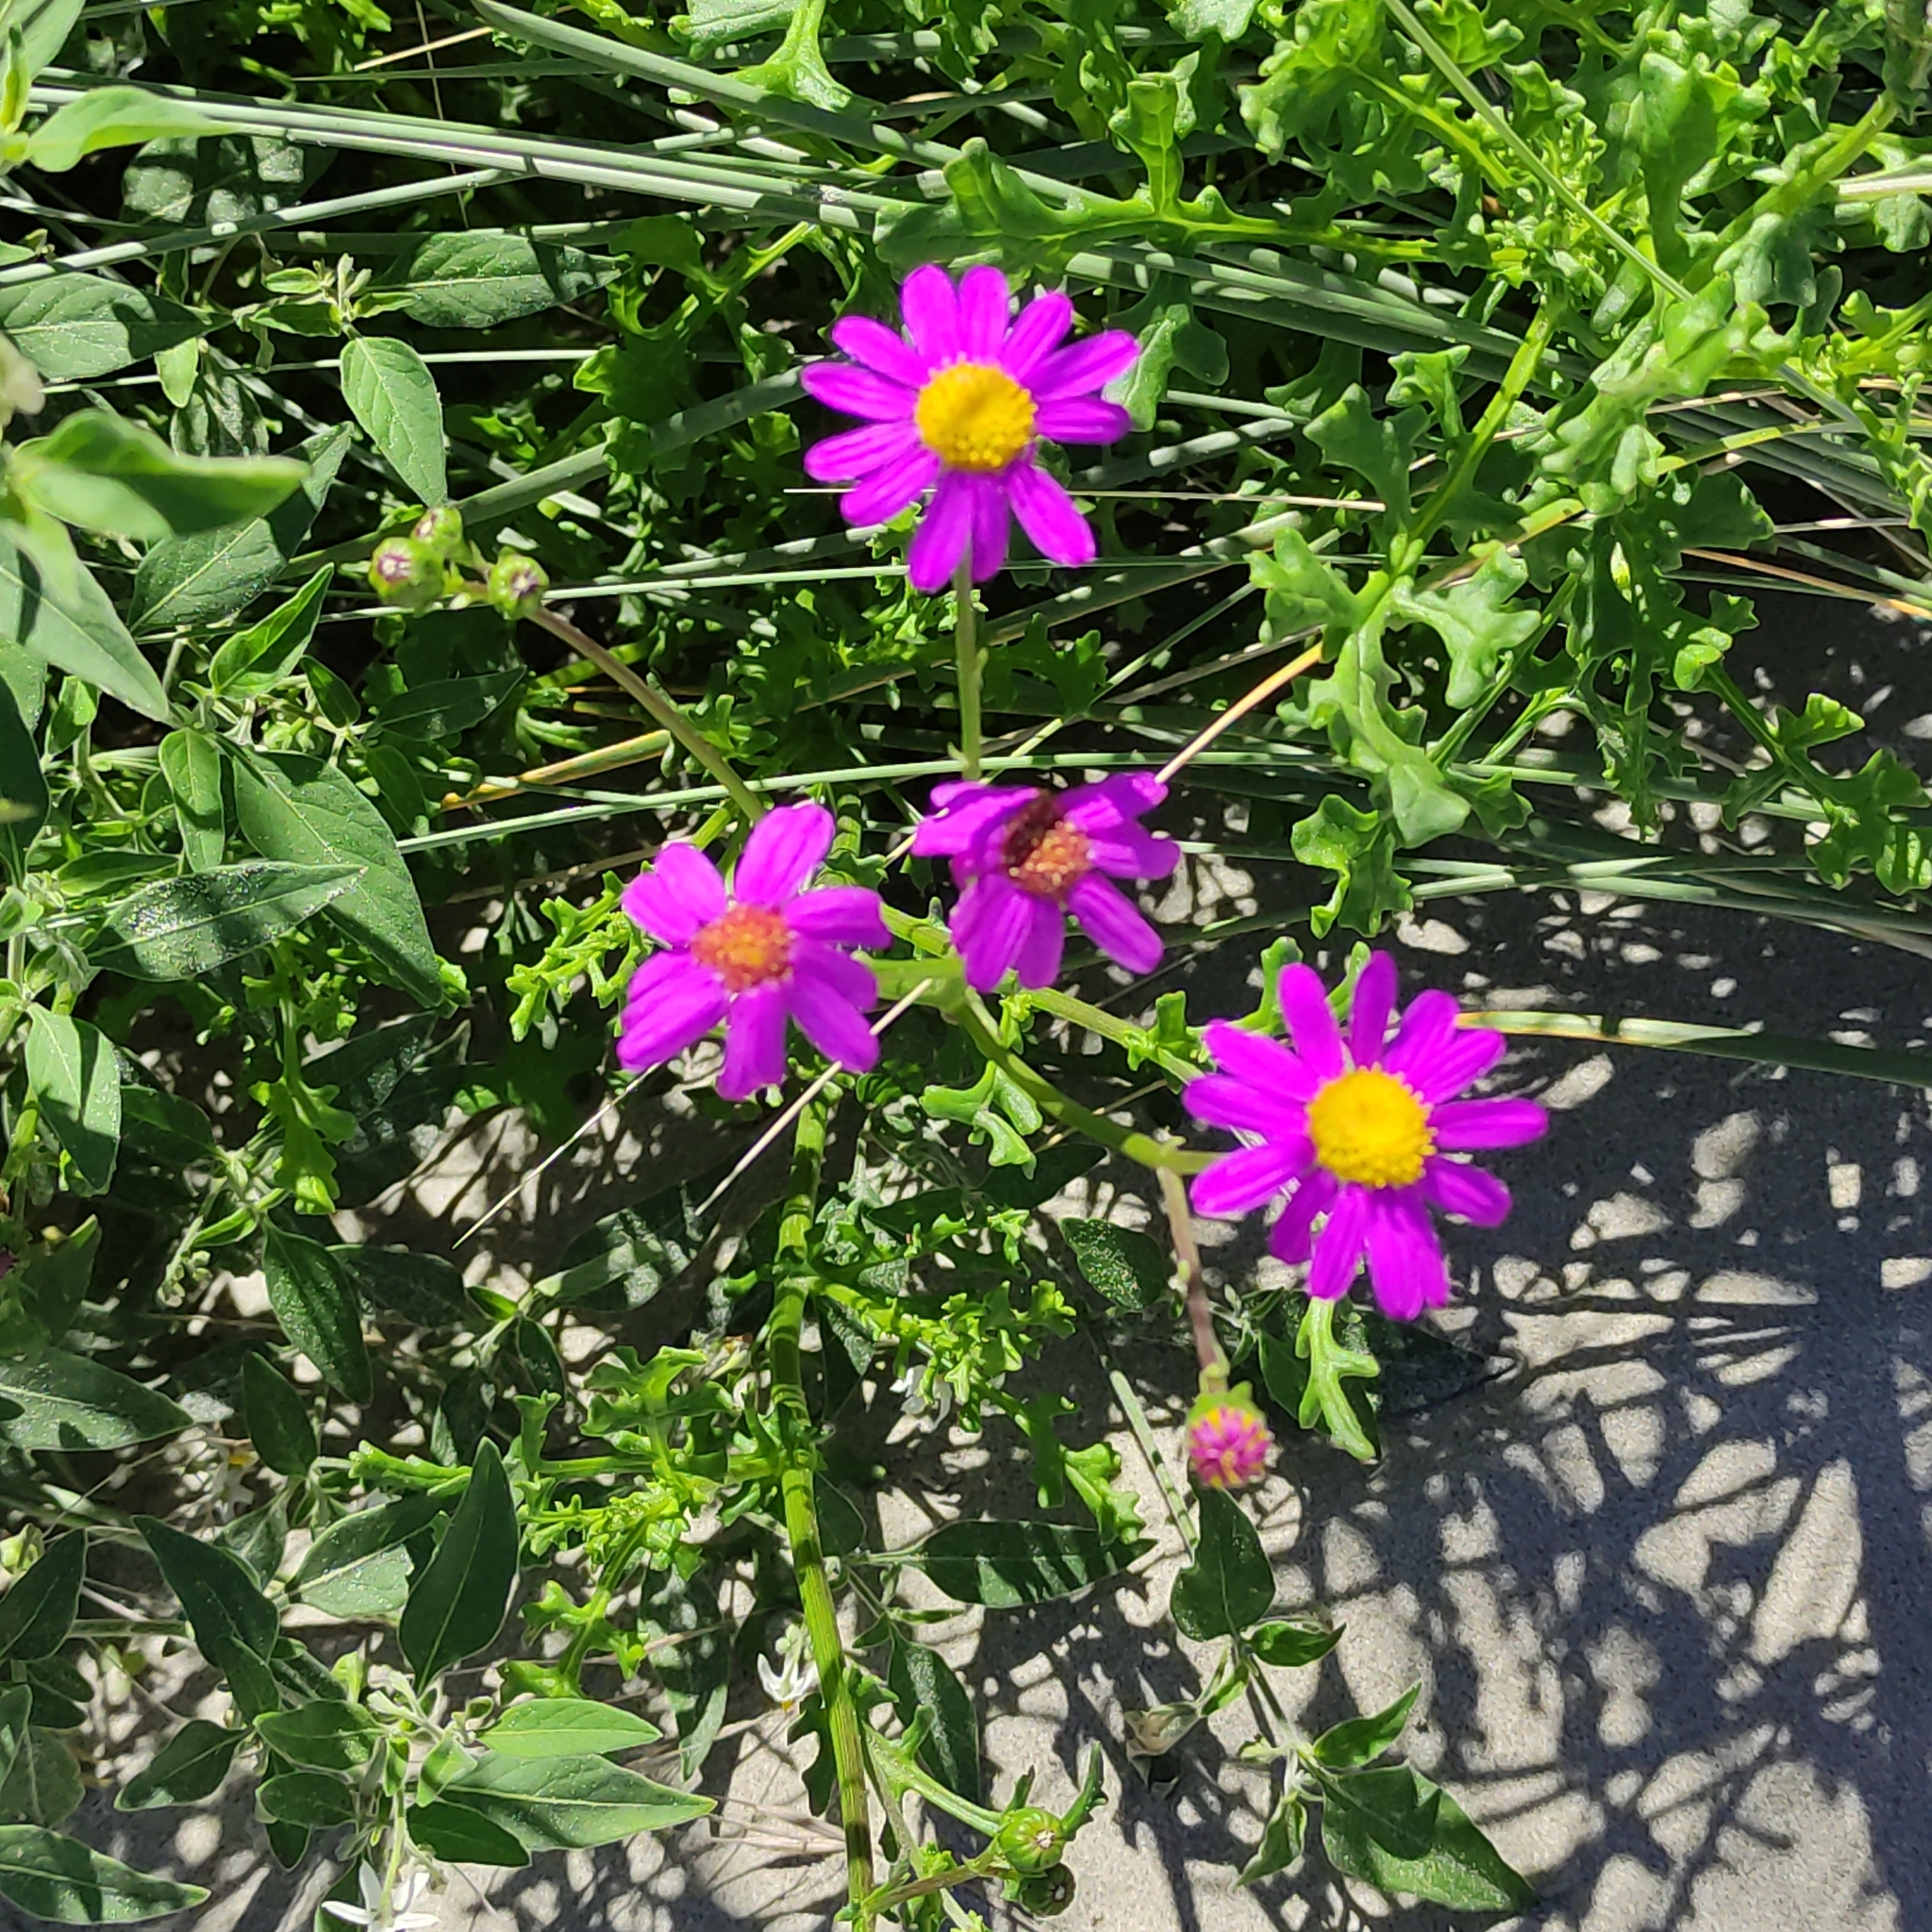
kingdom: Plantae
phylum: Tracheophyta
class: Magnoliopsida
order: Asterales
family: Asteraceae
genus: Senecio
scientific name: Senecio elegans
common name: Purple groundsel
